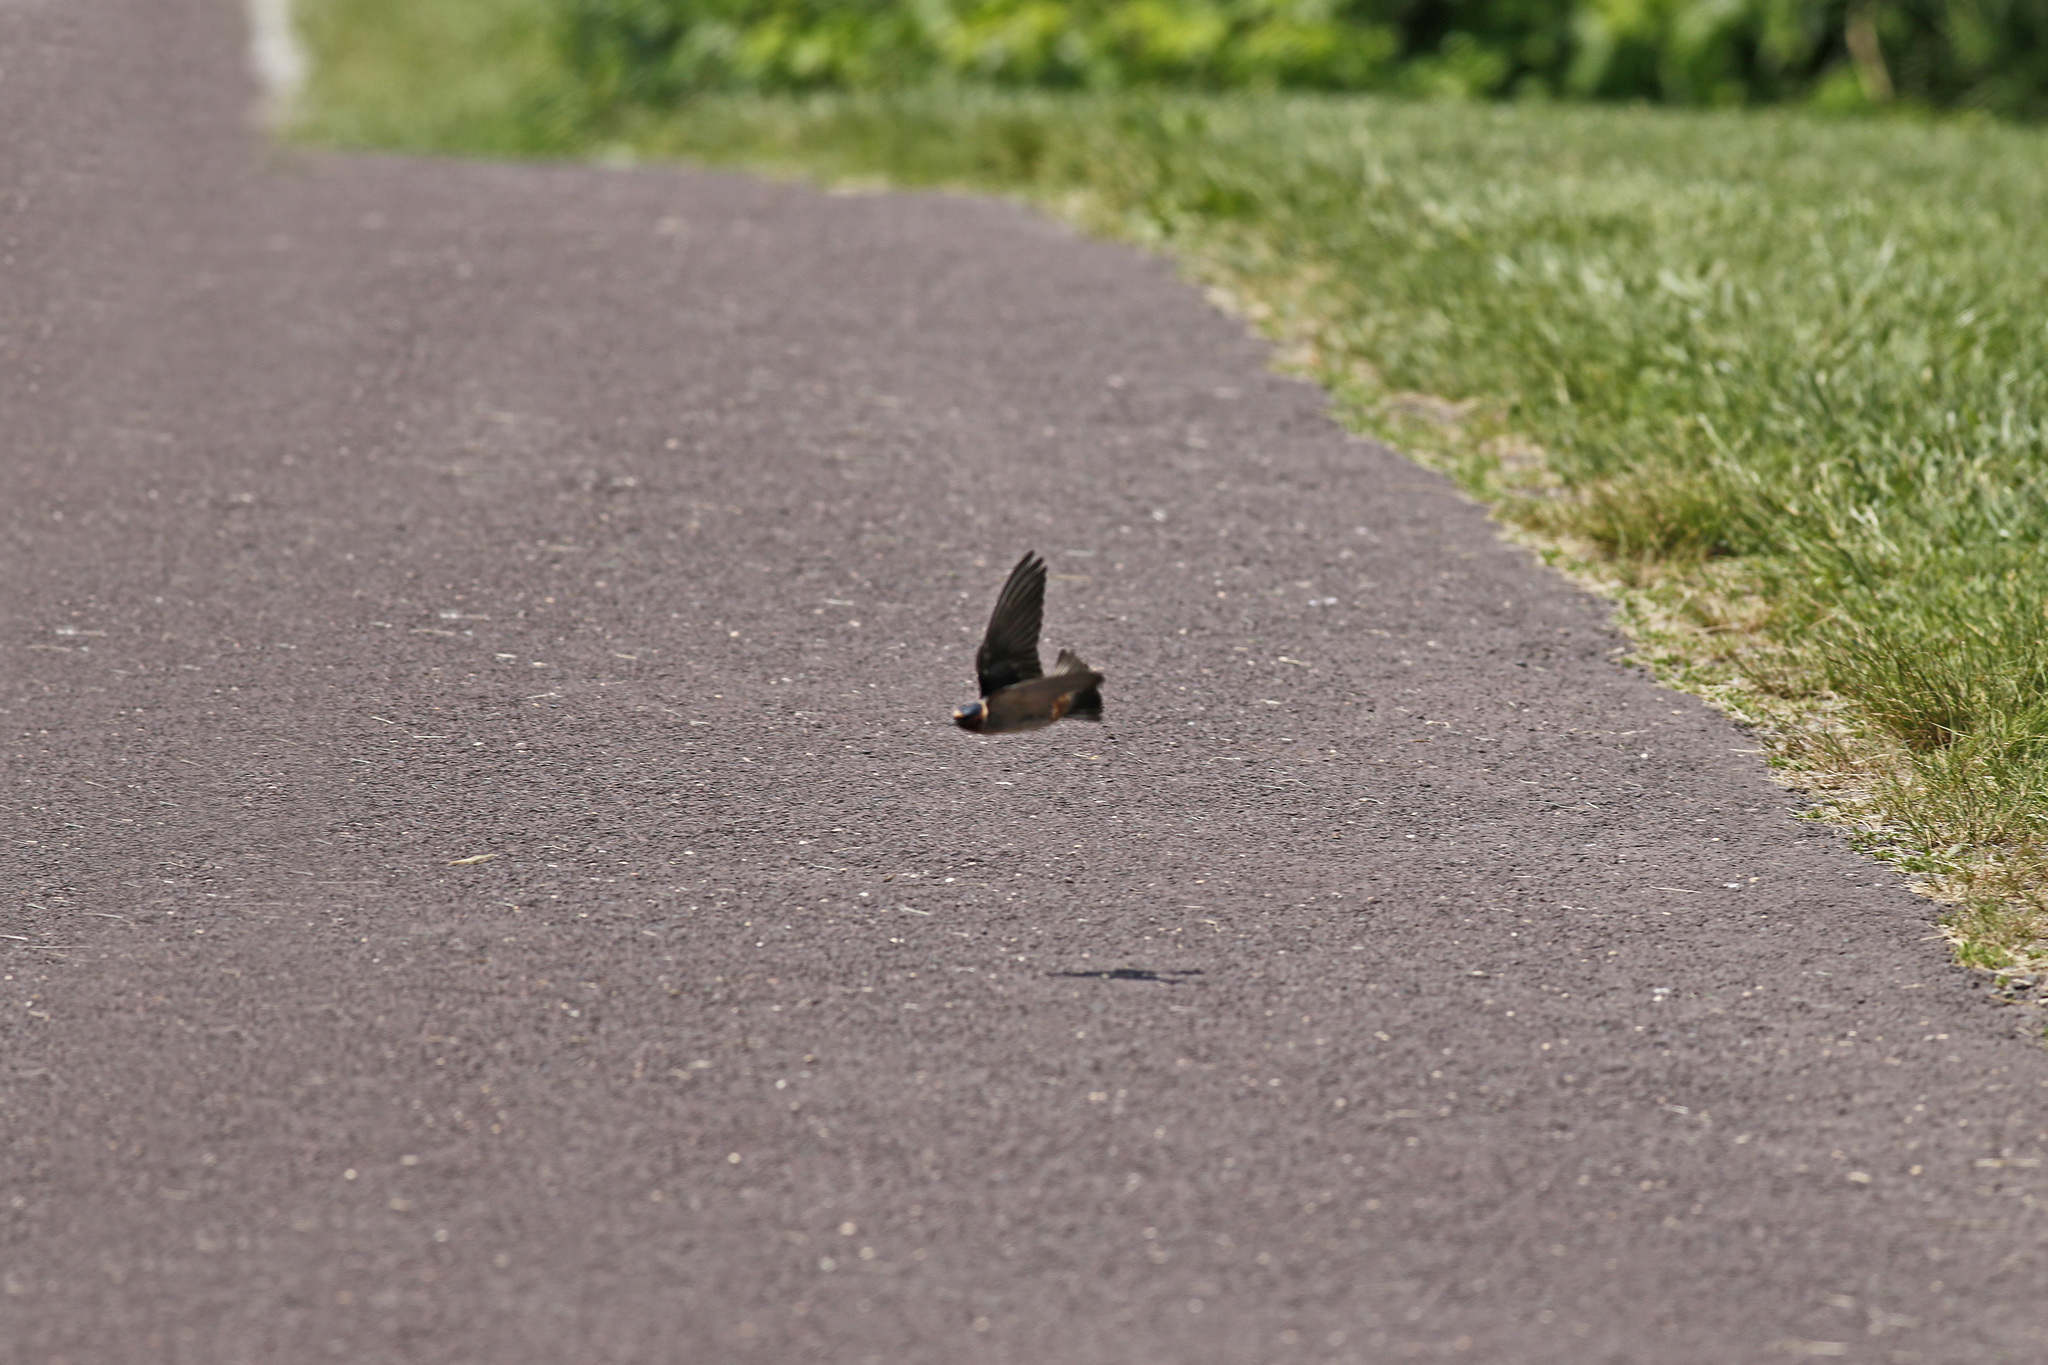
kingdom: Animalia
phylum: Chordata
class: Aves
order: Passeriformes
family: Hirundinidae
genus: Petrochelidon
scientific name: Petrochelidon pyrrhonota
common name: American cliff swallow
